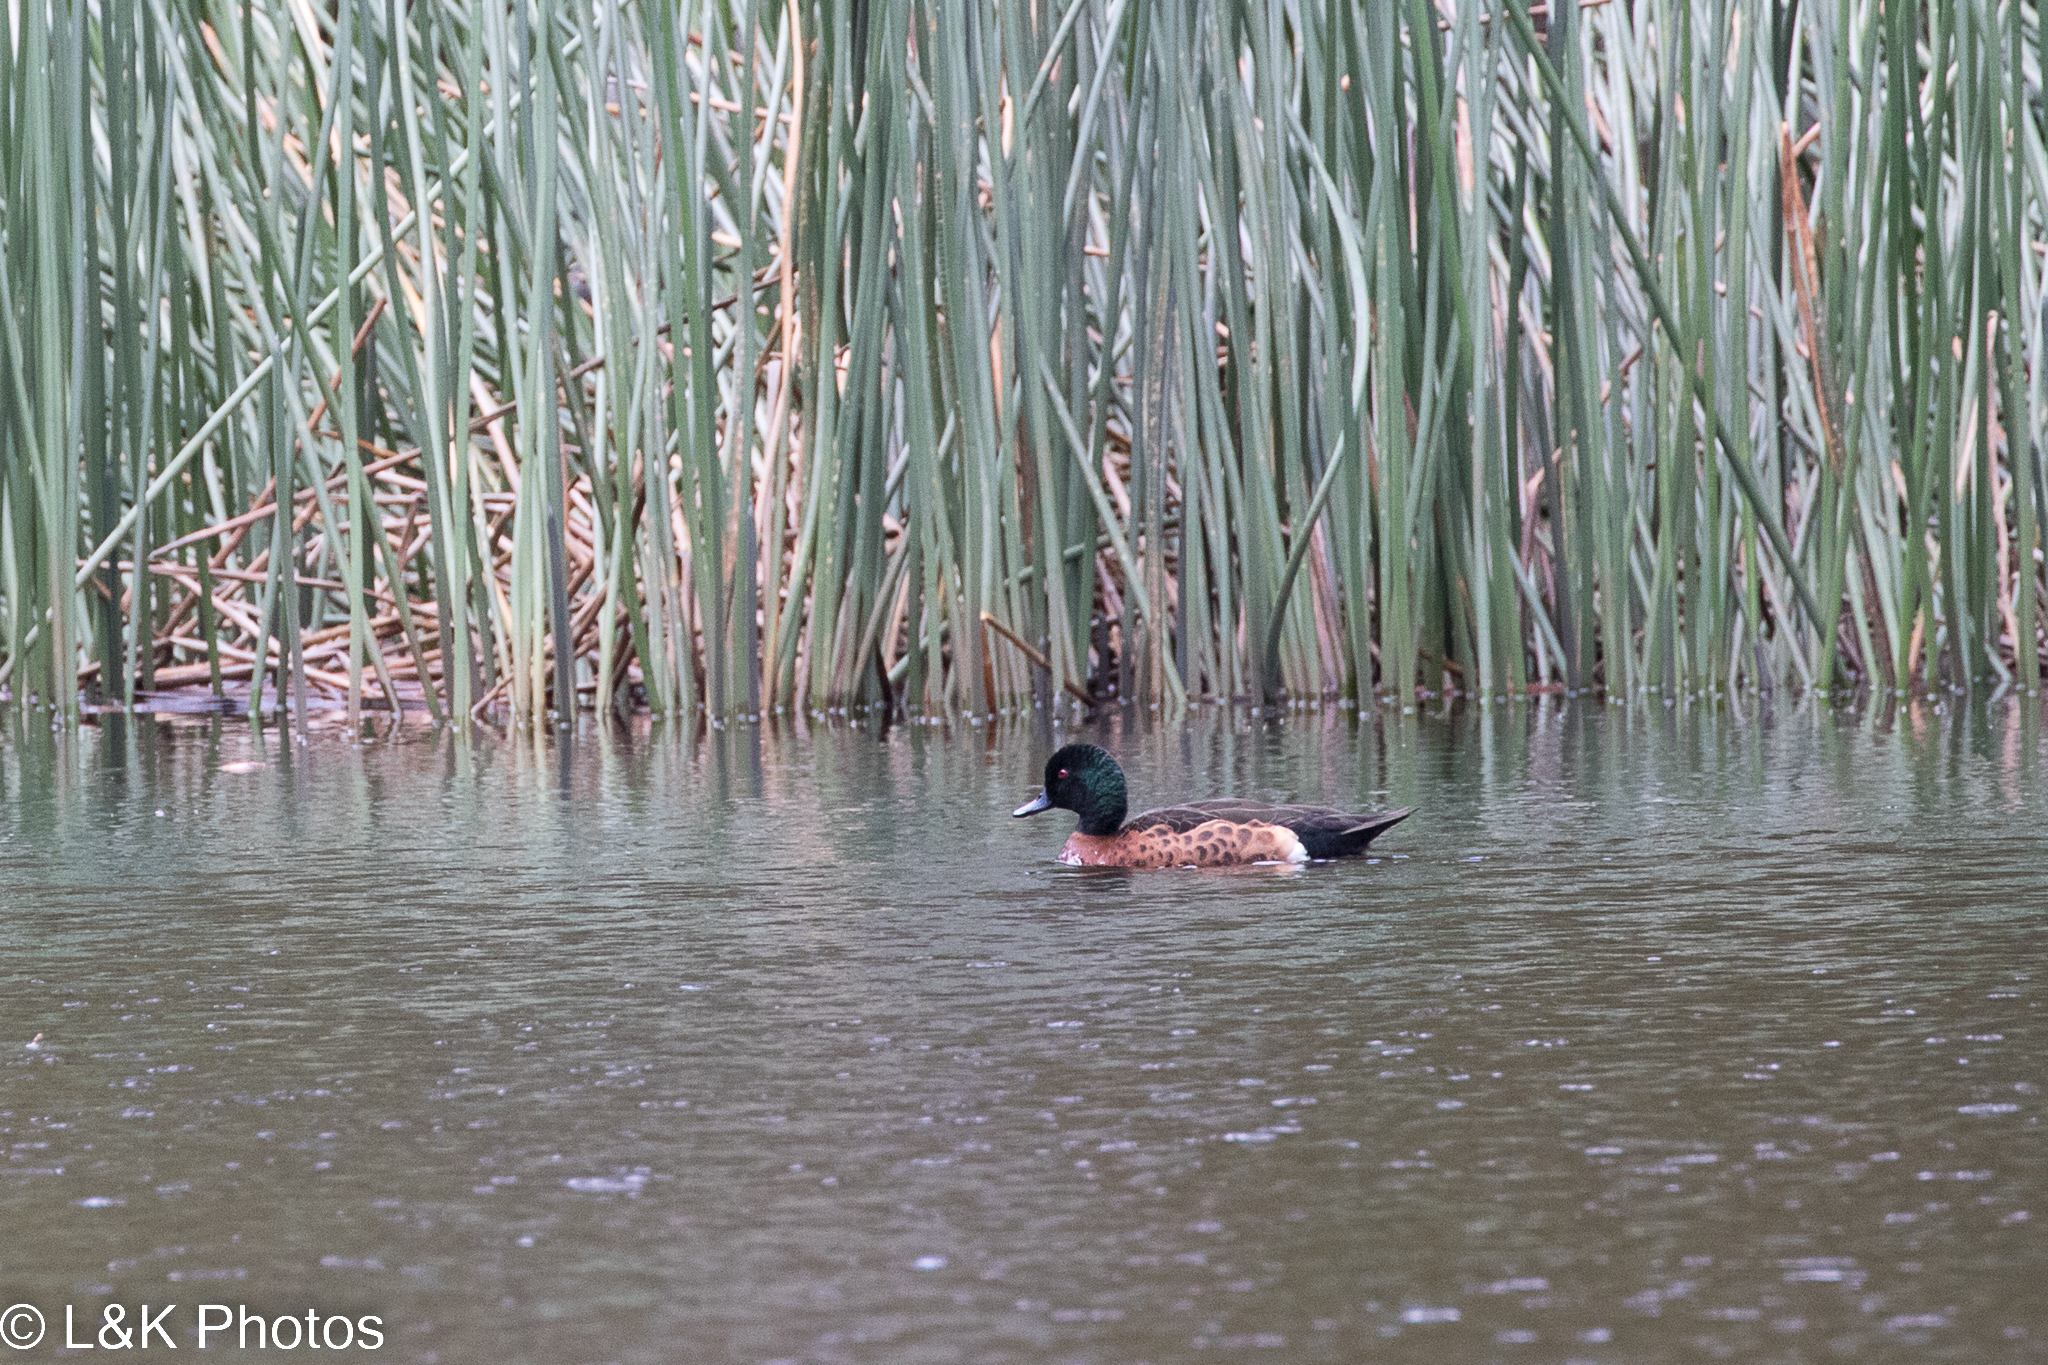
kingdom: Animalia
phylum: Chordata
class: Aves
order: Anseriformes
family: Anatidae
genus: Anas
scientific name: Anas castanea
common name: Chestnut teal
